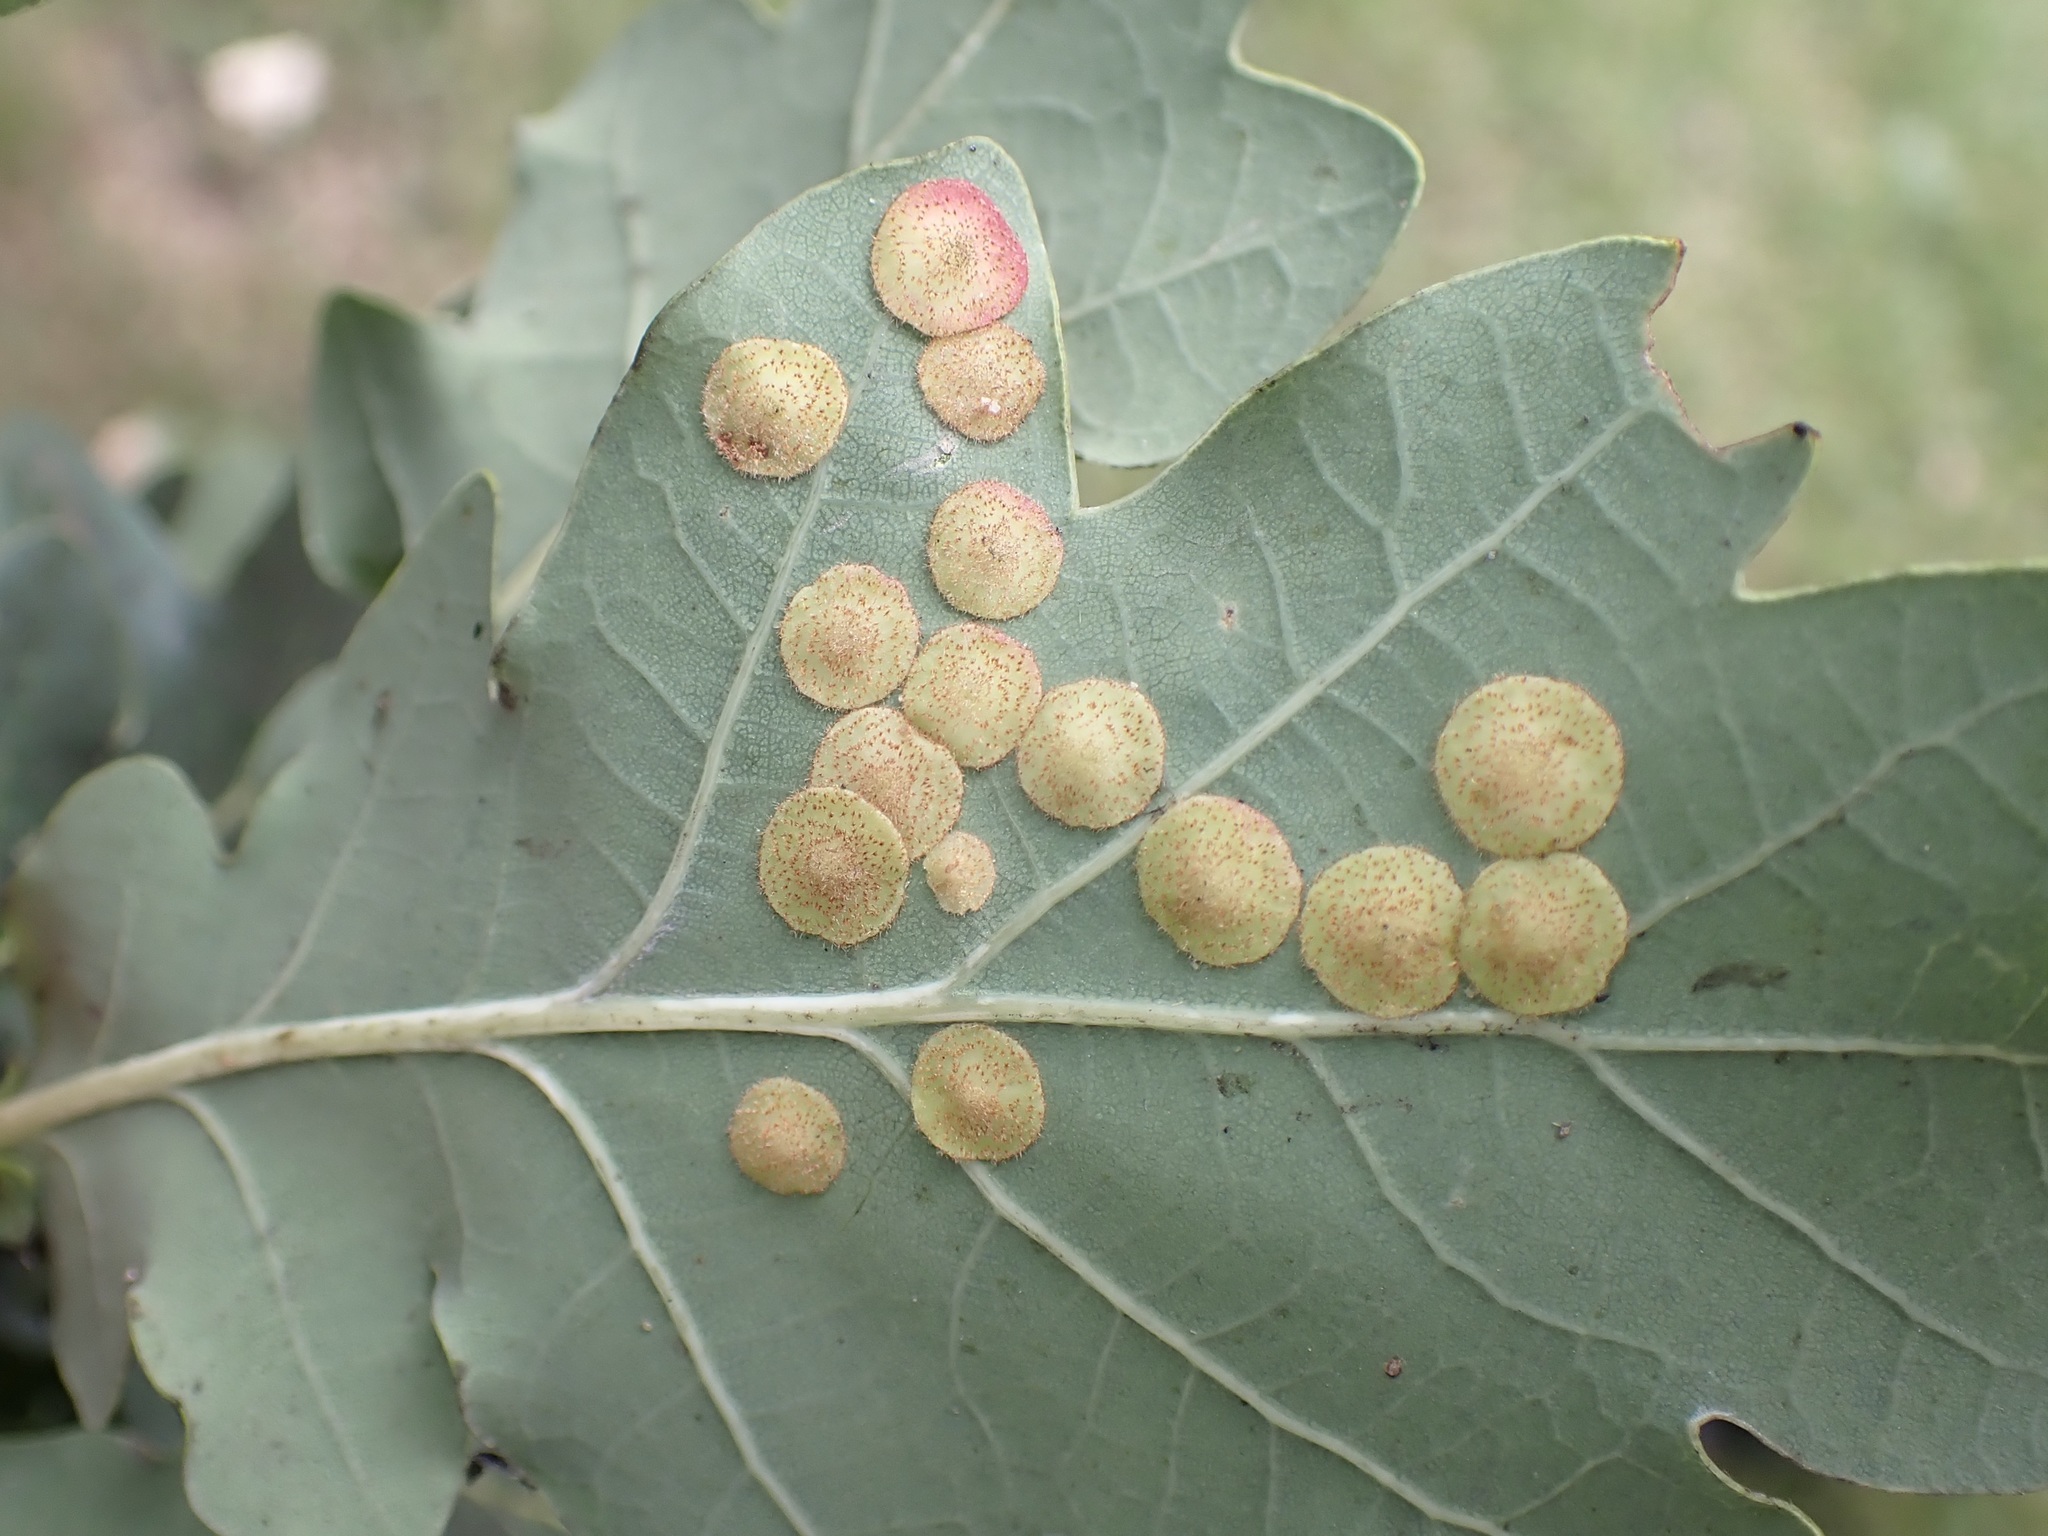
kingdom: Animalia
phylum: Arthropoda
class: Insecta
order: Hymenoptera
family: Cynipidae
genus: Neuroterus
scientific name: Neuroterus quercusbaccarum
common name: Common spangle gall
